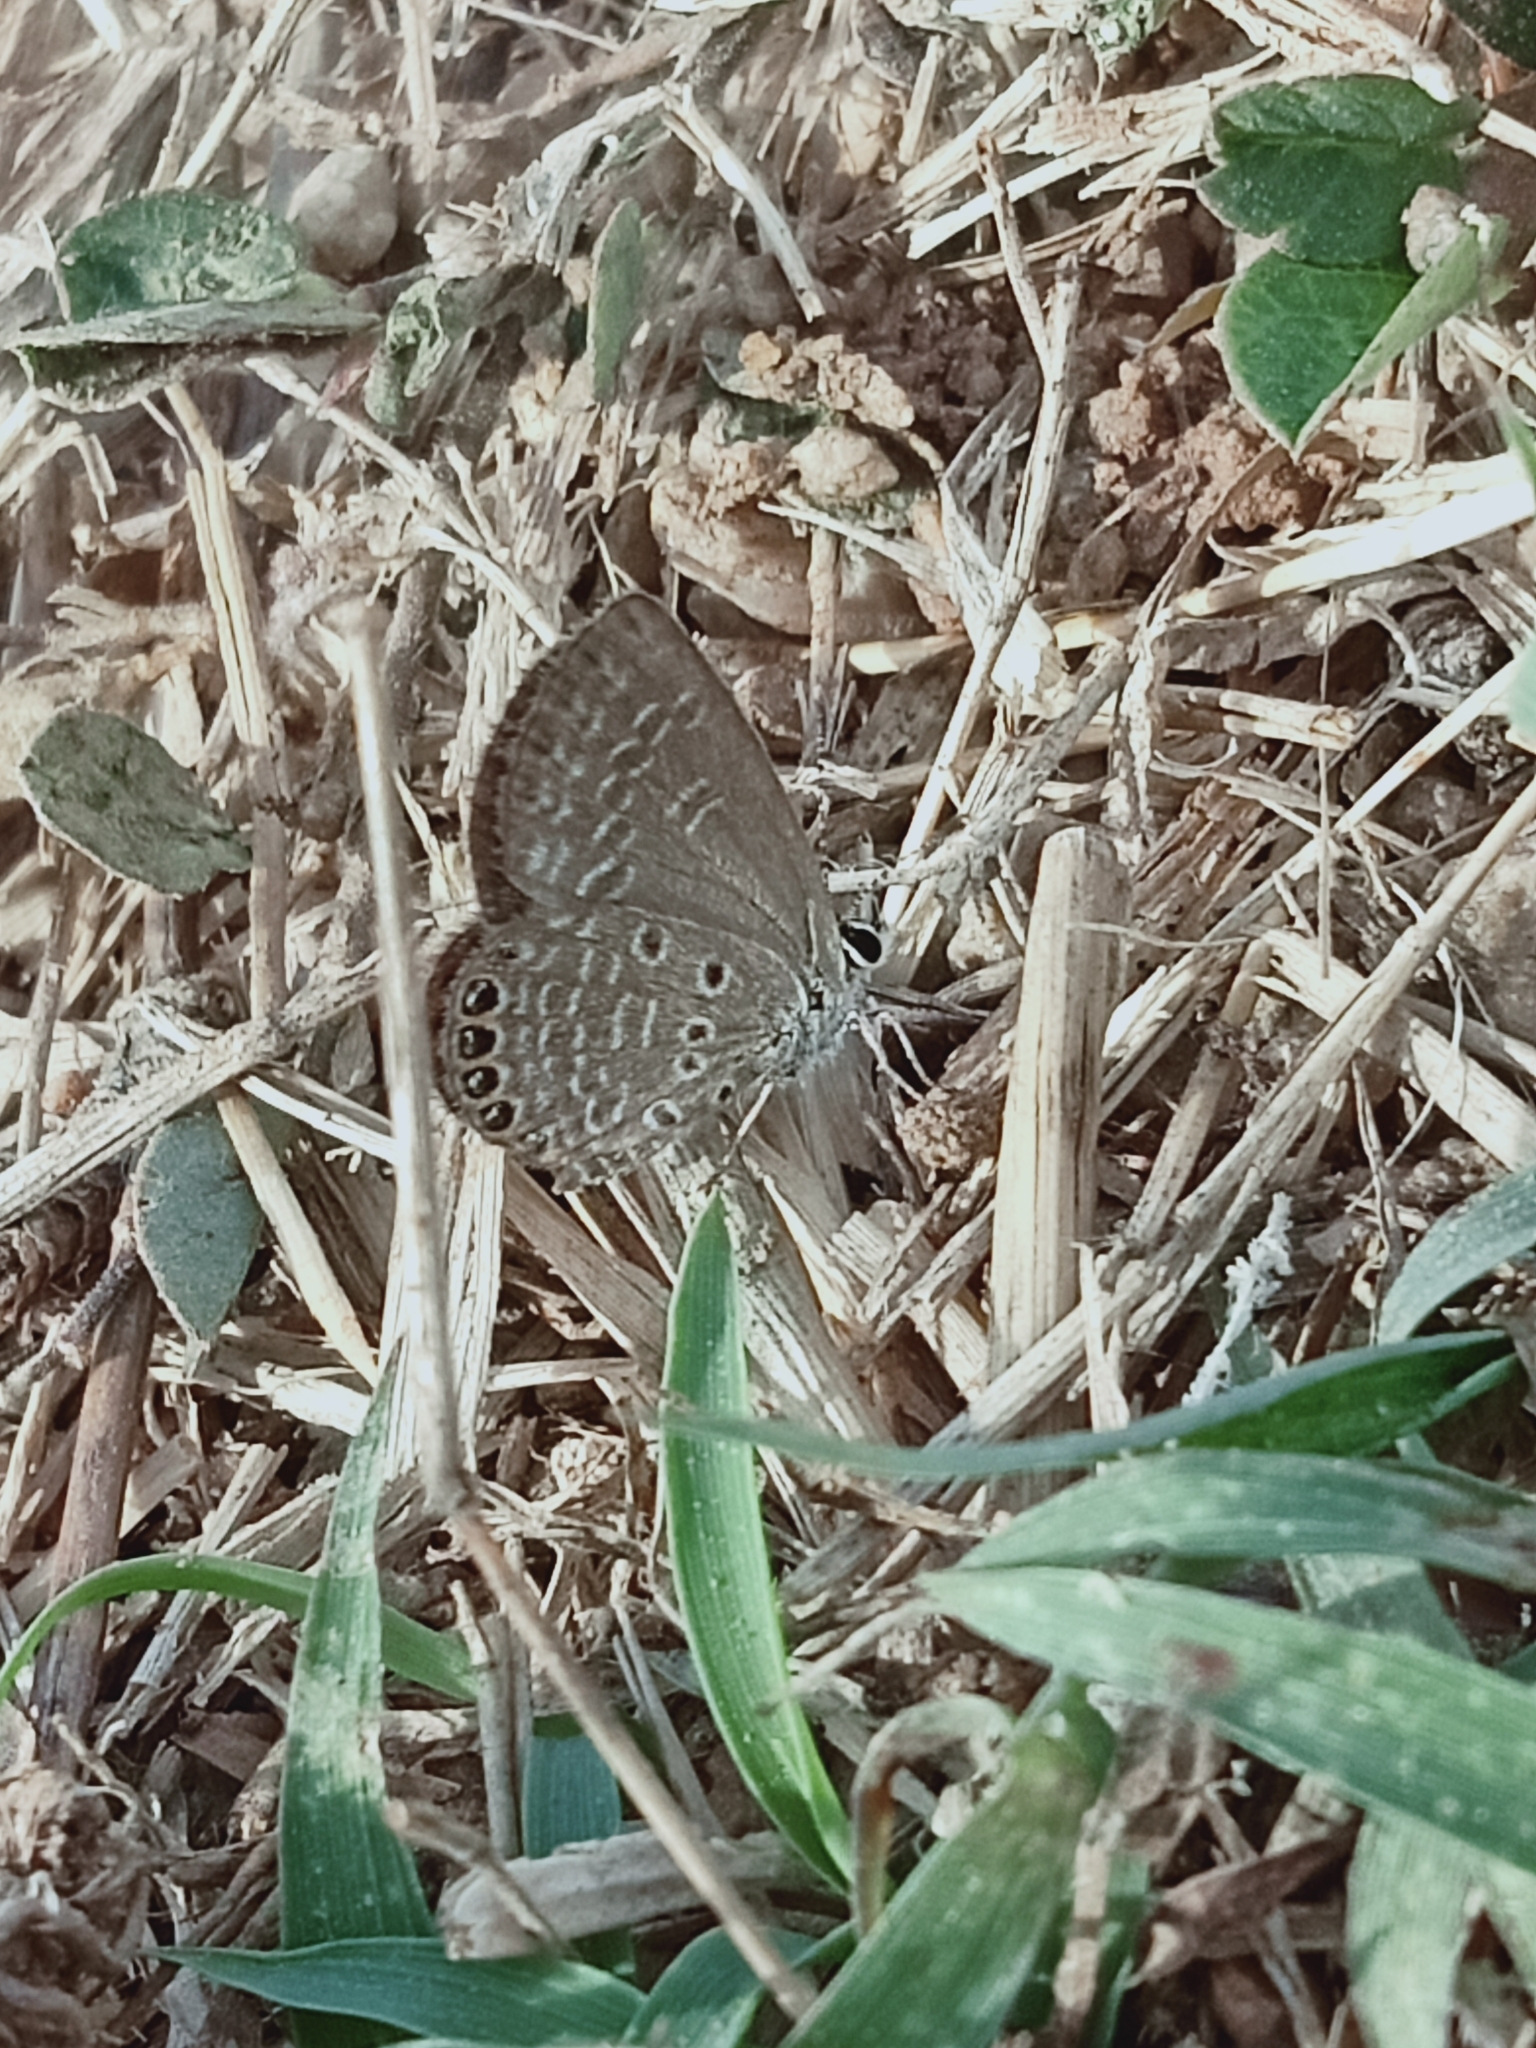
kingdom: Animalia
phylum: Arthropoda
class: Insecta
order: Lepidoptera
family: Lycaenidae
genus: Freyeria
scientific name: Freyeria putli
